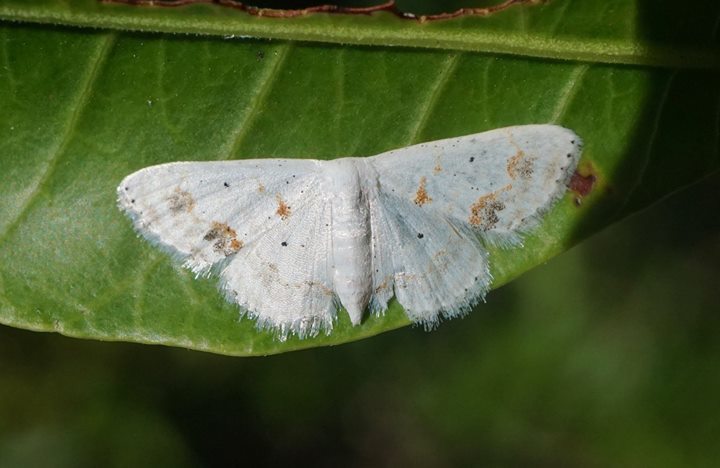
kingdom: Animalia
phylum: Arthropoda
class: Insecta
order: Lepidoptera
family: Geometridae
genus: Scopula
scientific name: Scopula lautaria
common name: Small frosted wave moth
